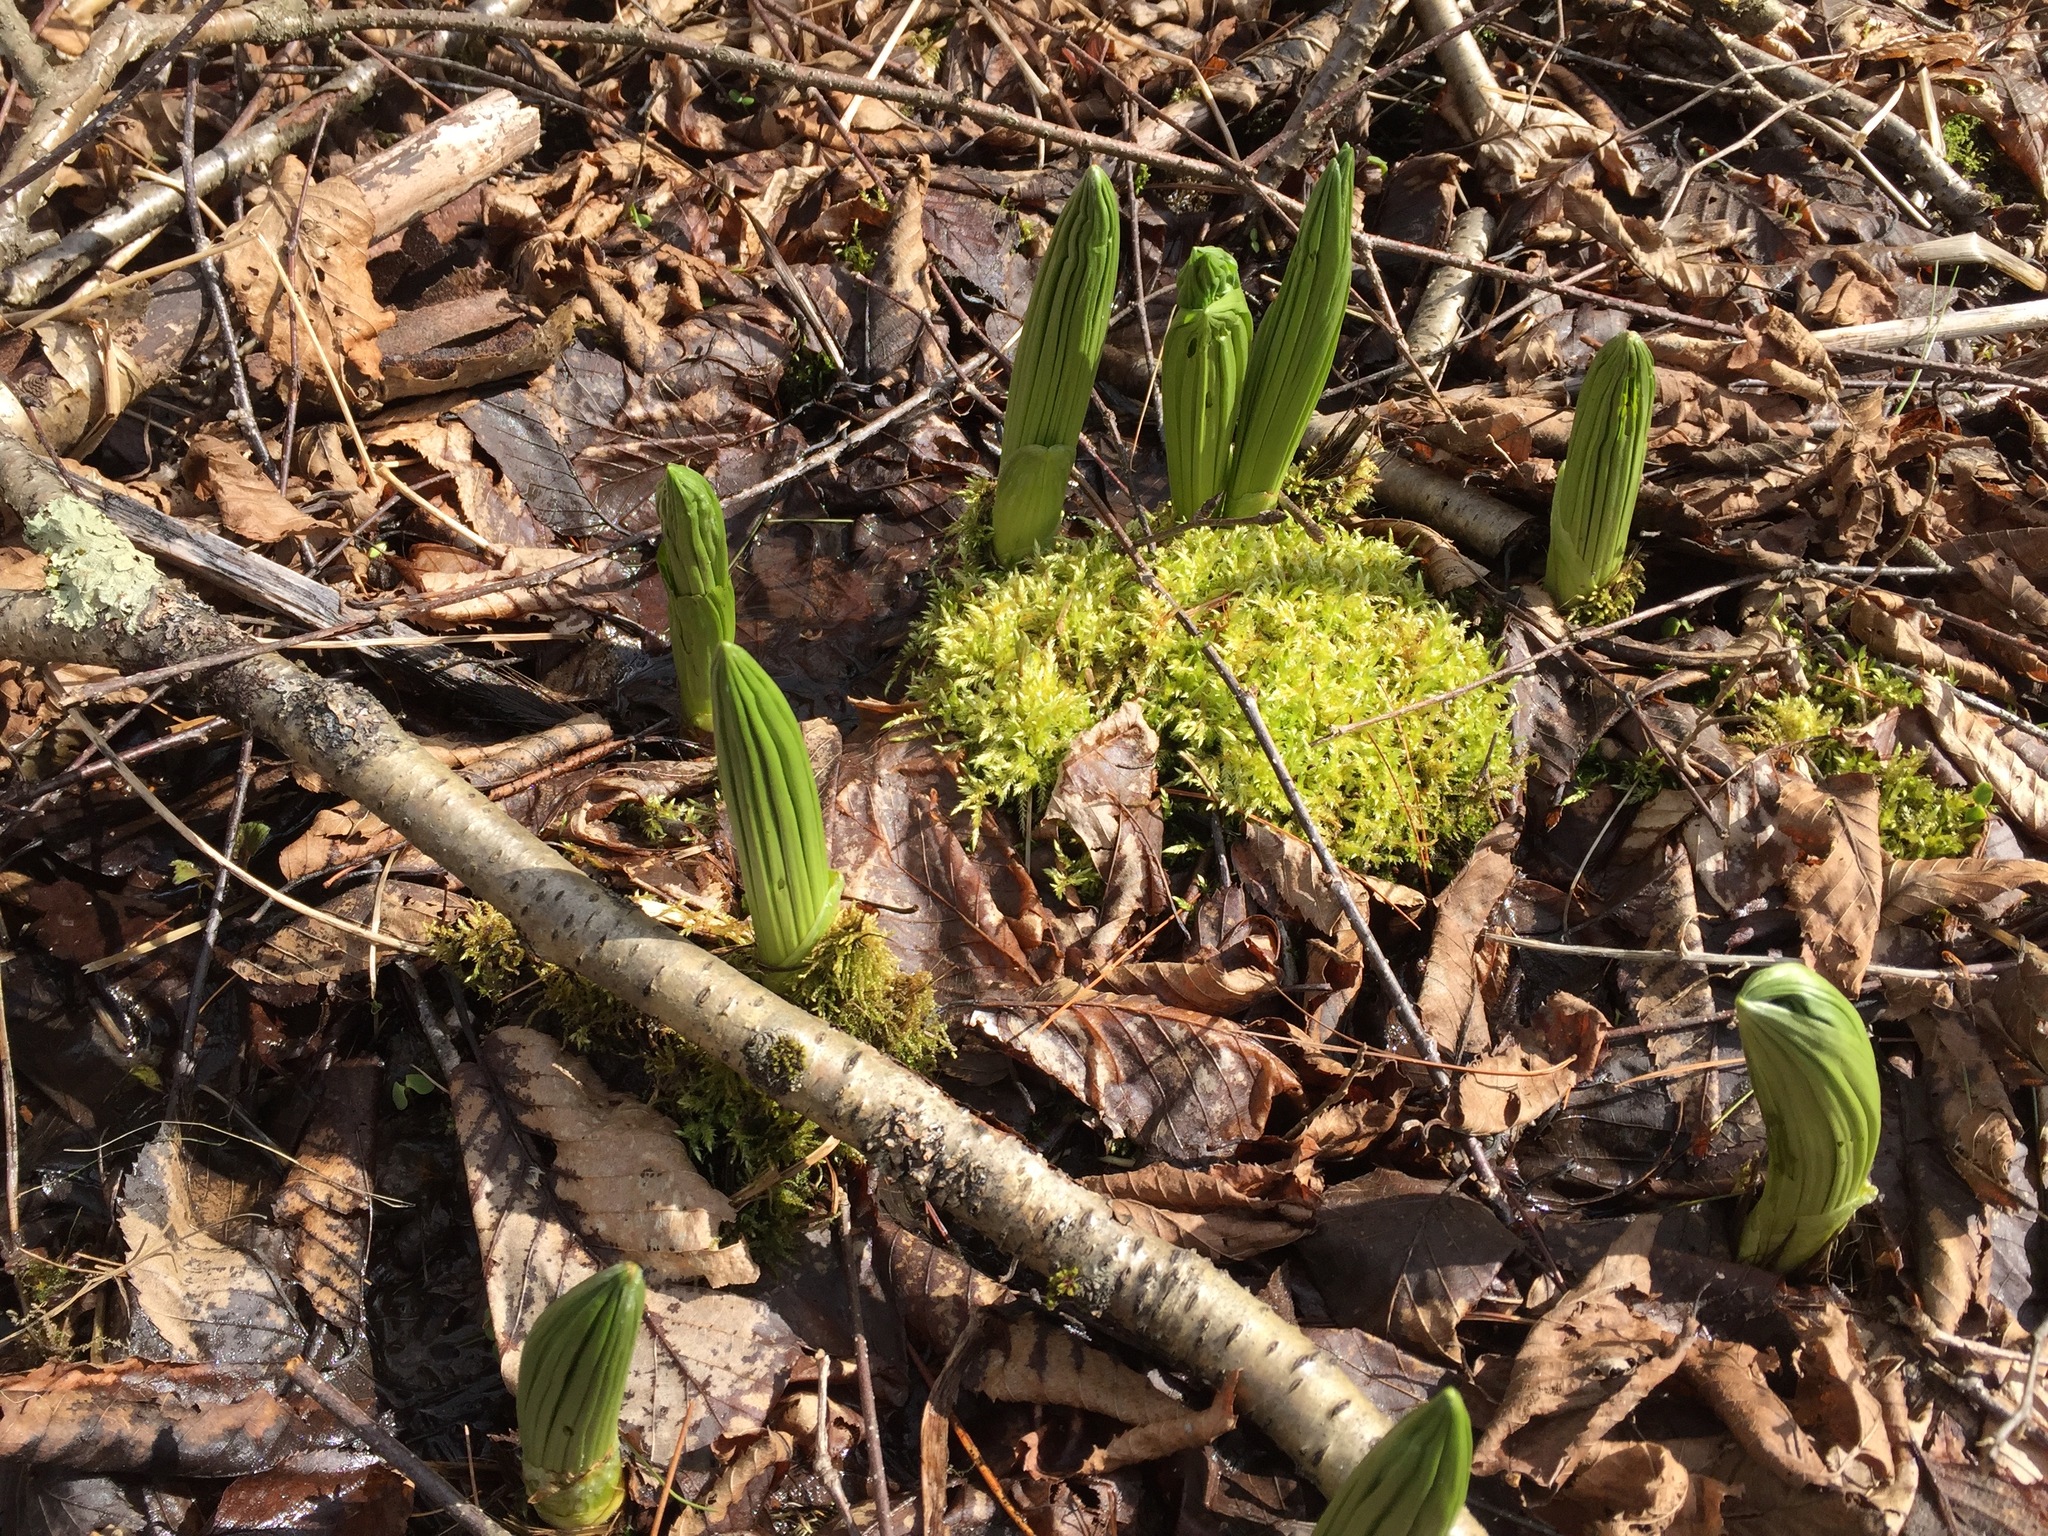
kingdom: Plantae
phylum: Tracheophyta
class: Liliopsida
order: Liliales
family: Melanthiaceae
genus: Veratrum
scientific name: Veratrum viride
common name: American false hellebore
